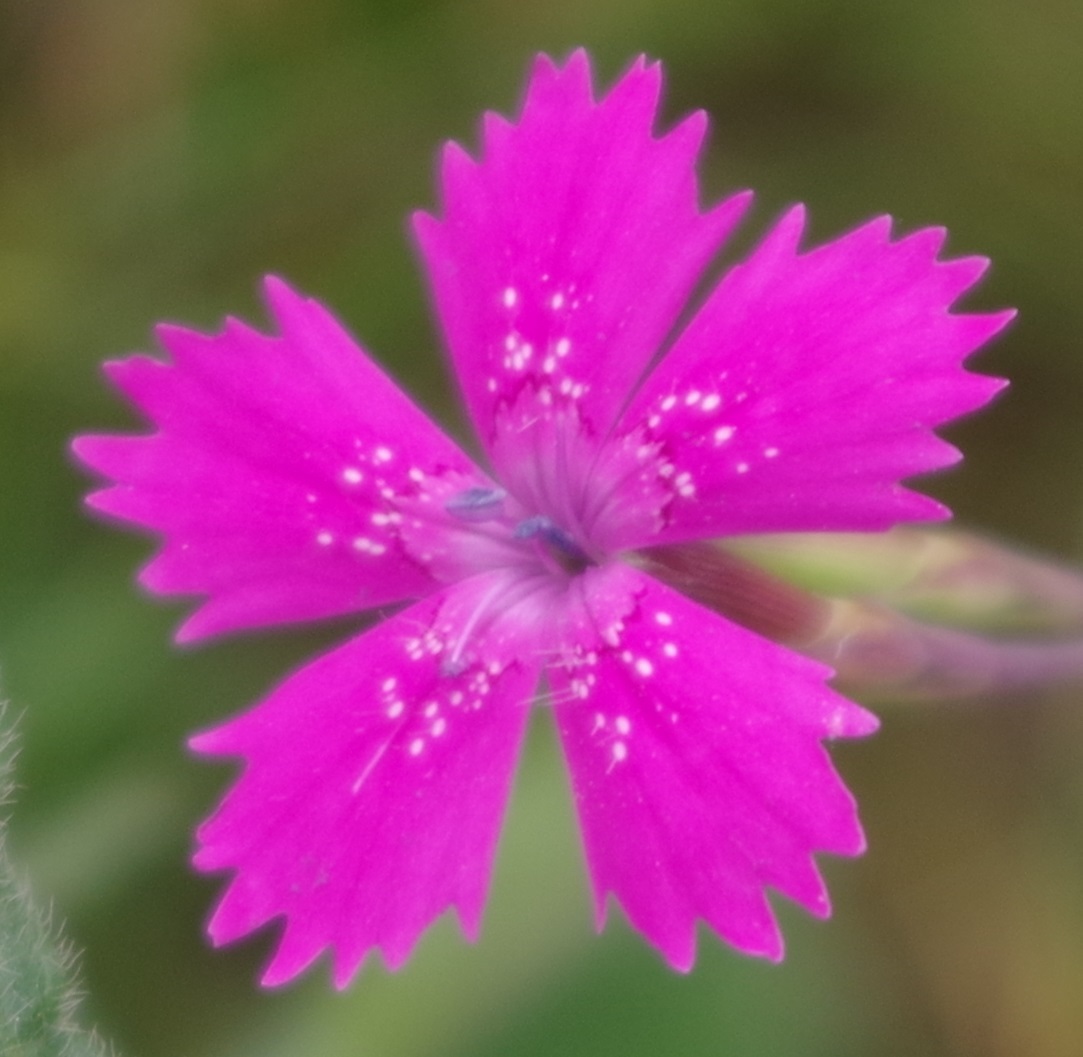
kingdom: Plantae
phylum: Tracheophyta
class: Magnoliopsida
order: Caryophyllales
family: Caryophyllaceae
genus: Dianthus
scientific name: Dianthus deltoides
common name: Maiden pink
